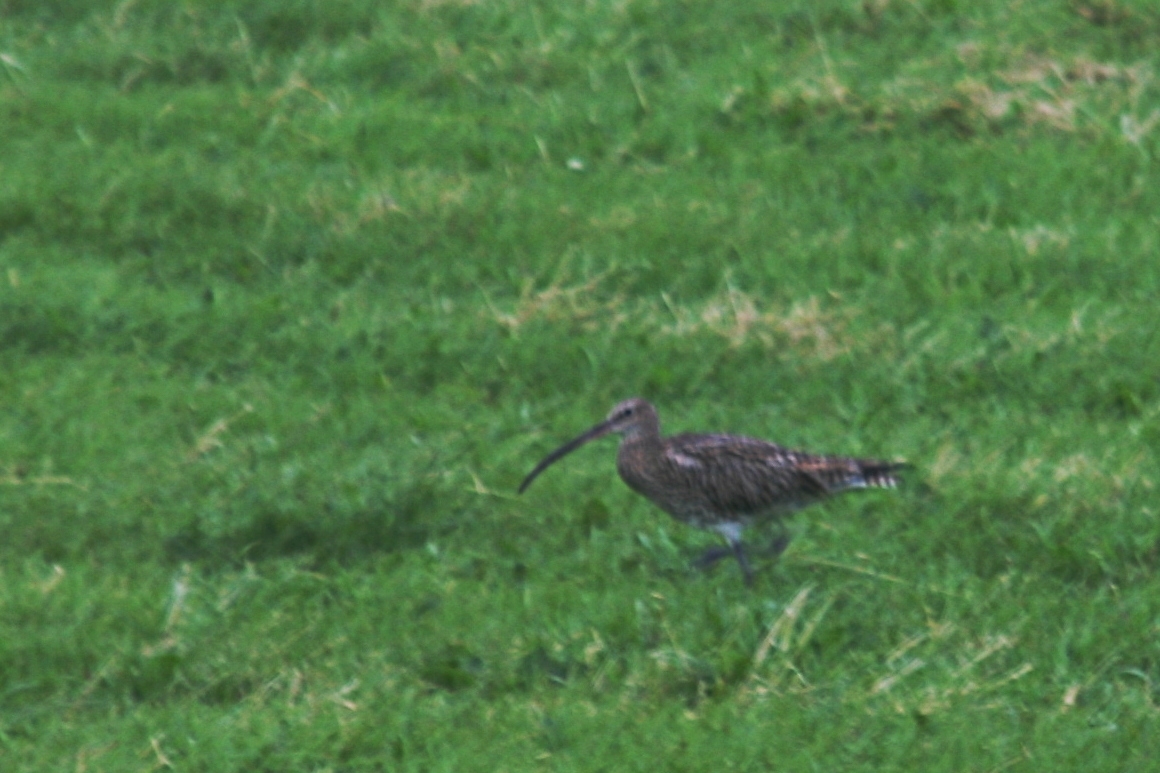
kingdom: Animalia
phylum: Chordata
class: Aves
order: Charadriiformes
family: Scolopacidae
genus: Numenius
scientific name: Numenius arquata
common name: Eurasian curlew
